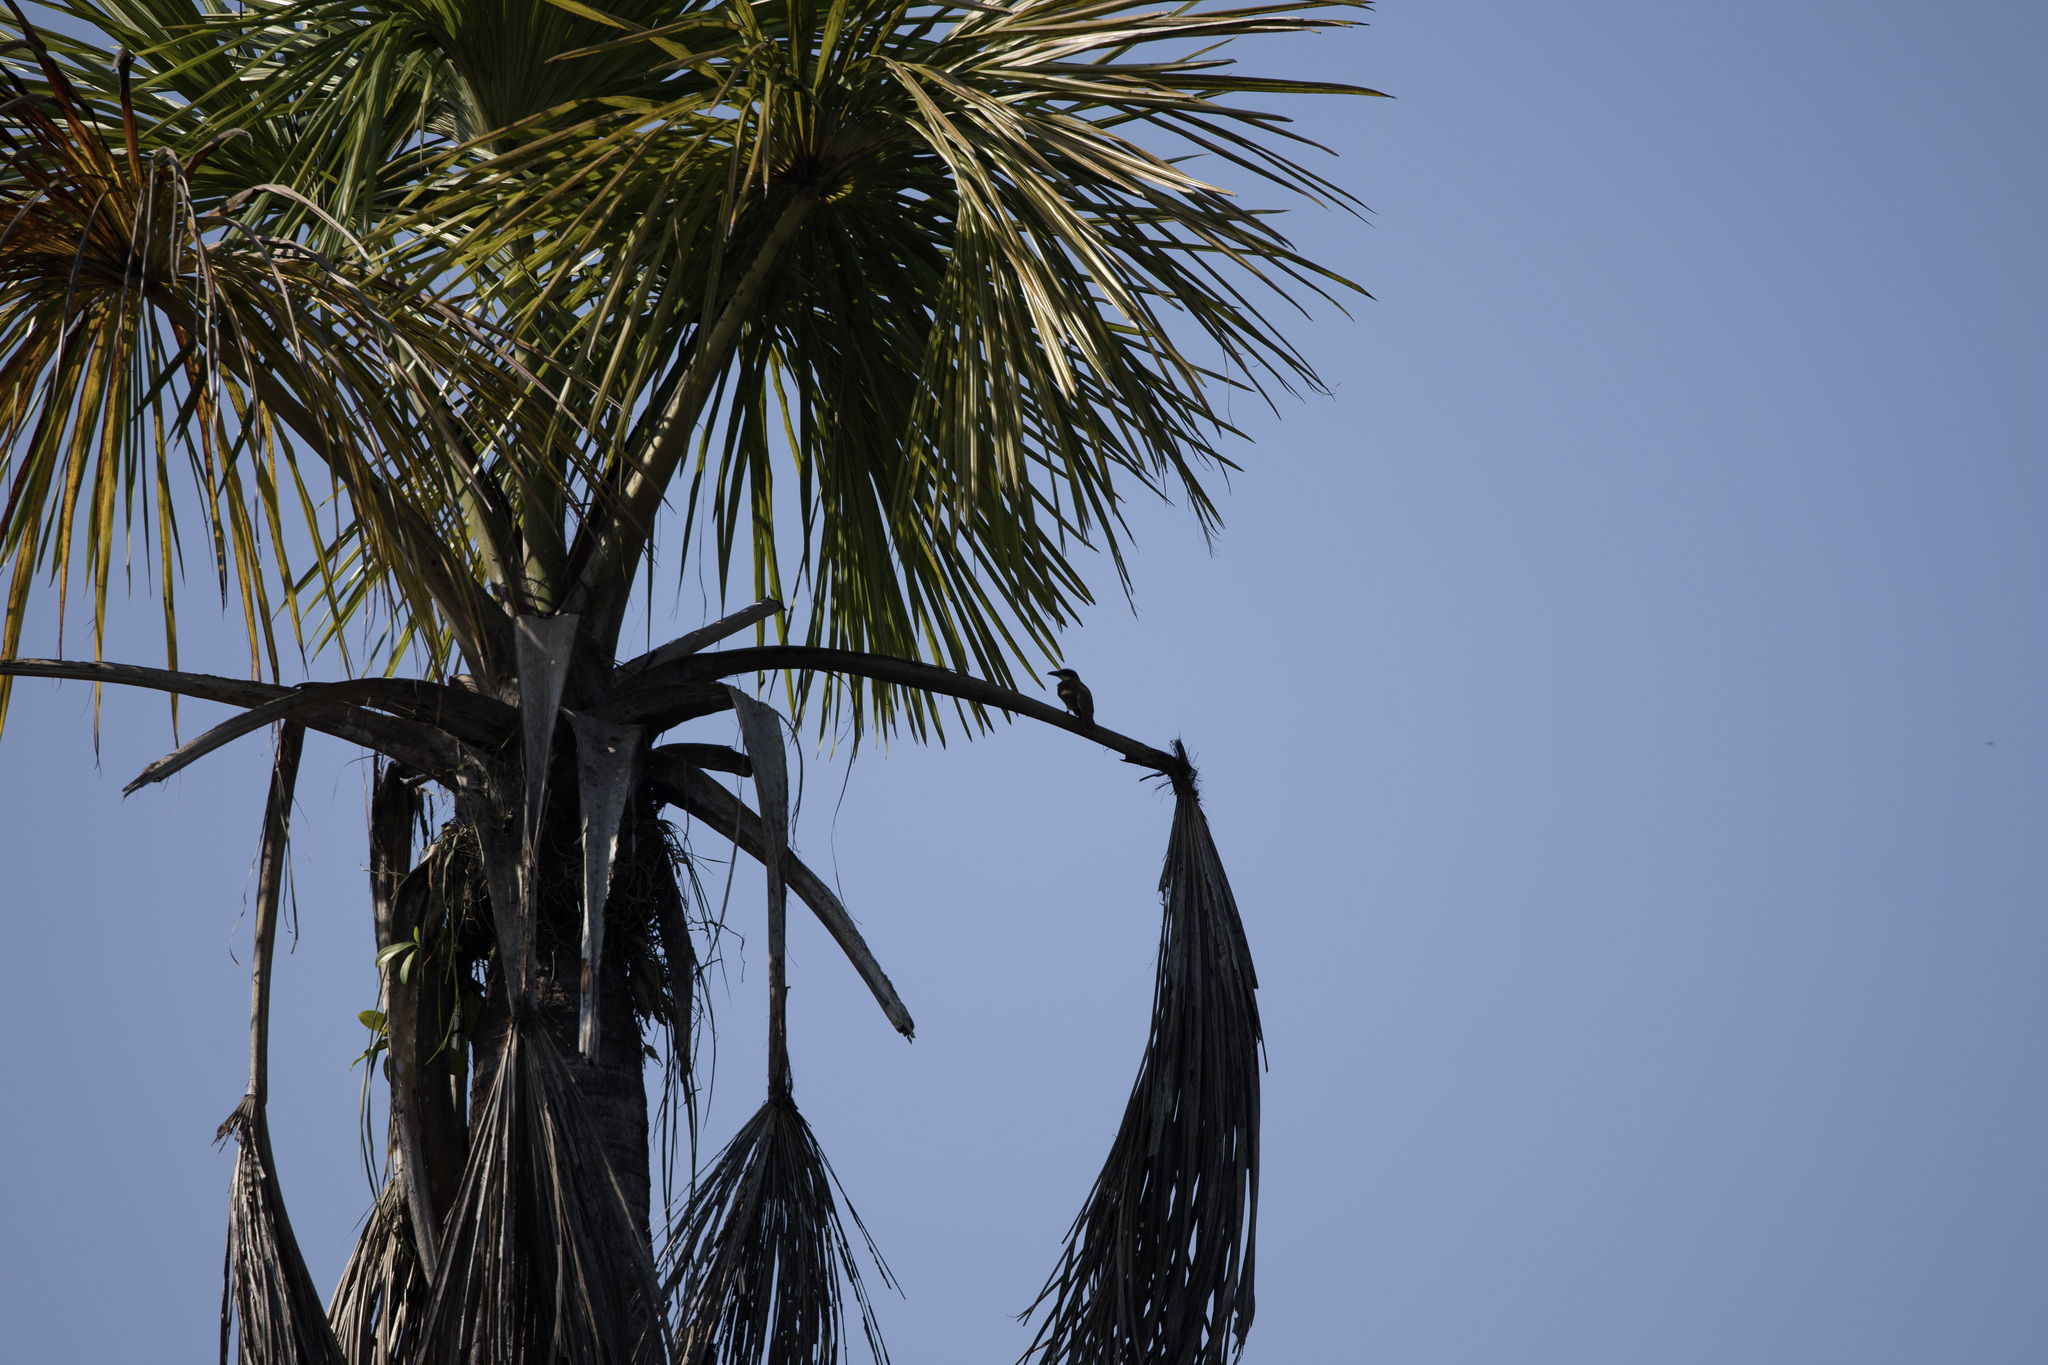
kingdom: Animalia
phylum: Chordata
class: Aves
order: Passeriformes
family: Tyrannidae
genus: Megarynchus
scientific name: Megarynchus pitangua
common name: Boat-billed flycatcher
